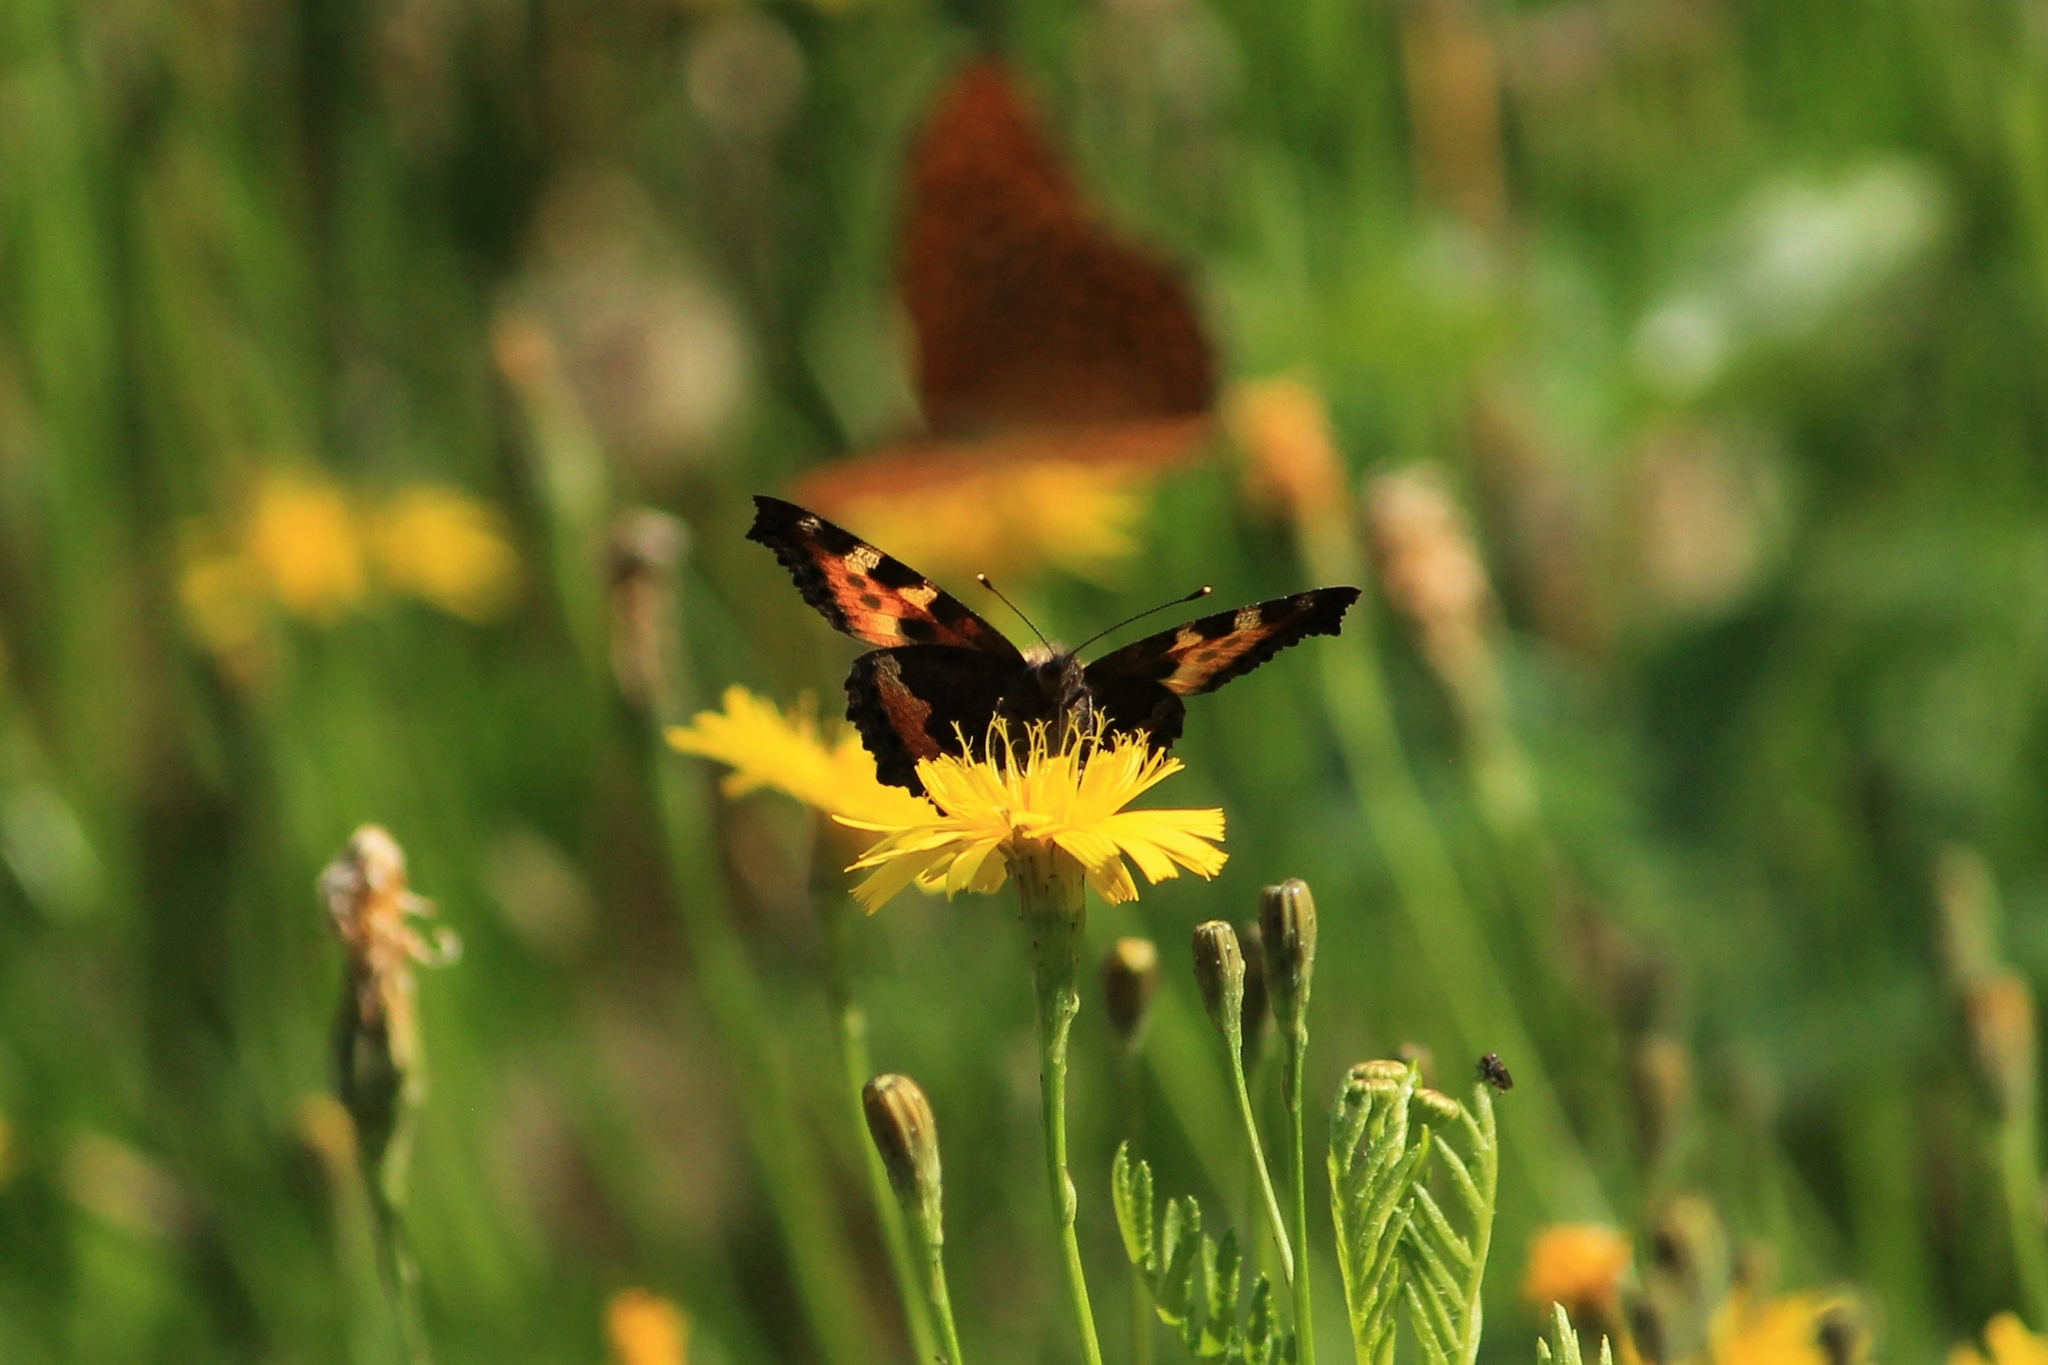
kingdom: Animalia
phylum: Arthropoda
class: Insecta
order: Lepidoptera
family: Nymphalidae
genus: Aglais
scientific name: Aglais urticae
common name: Small tortoiseshell
